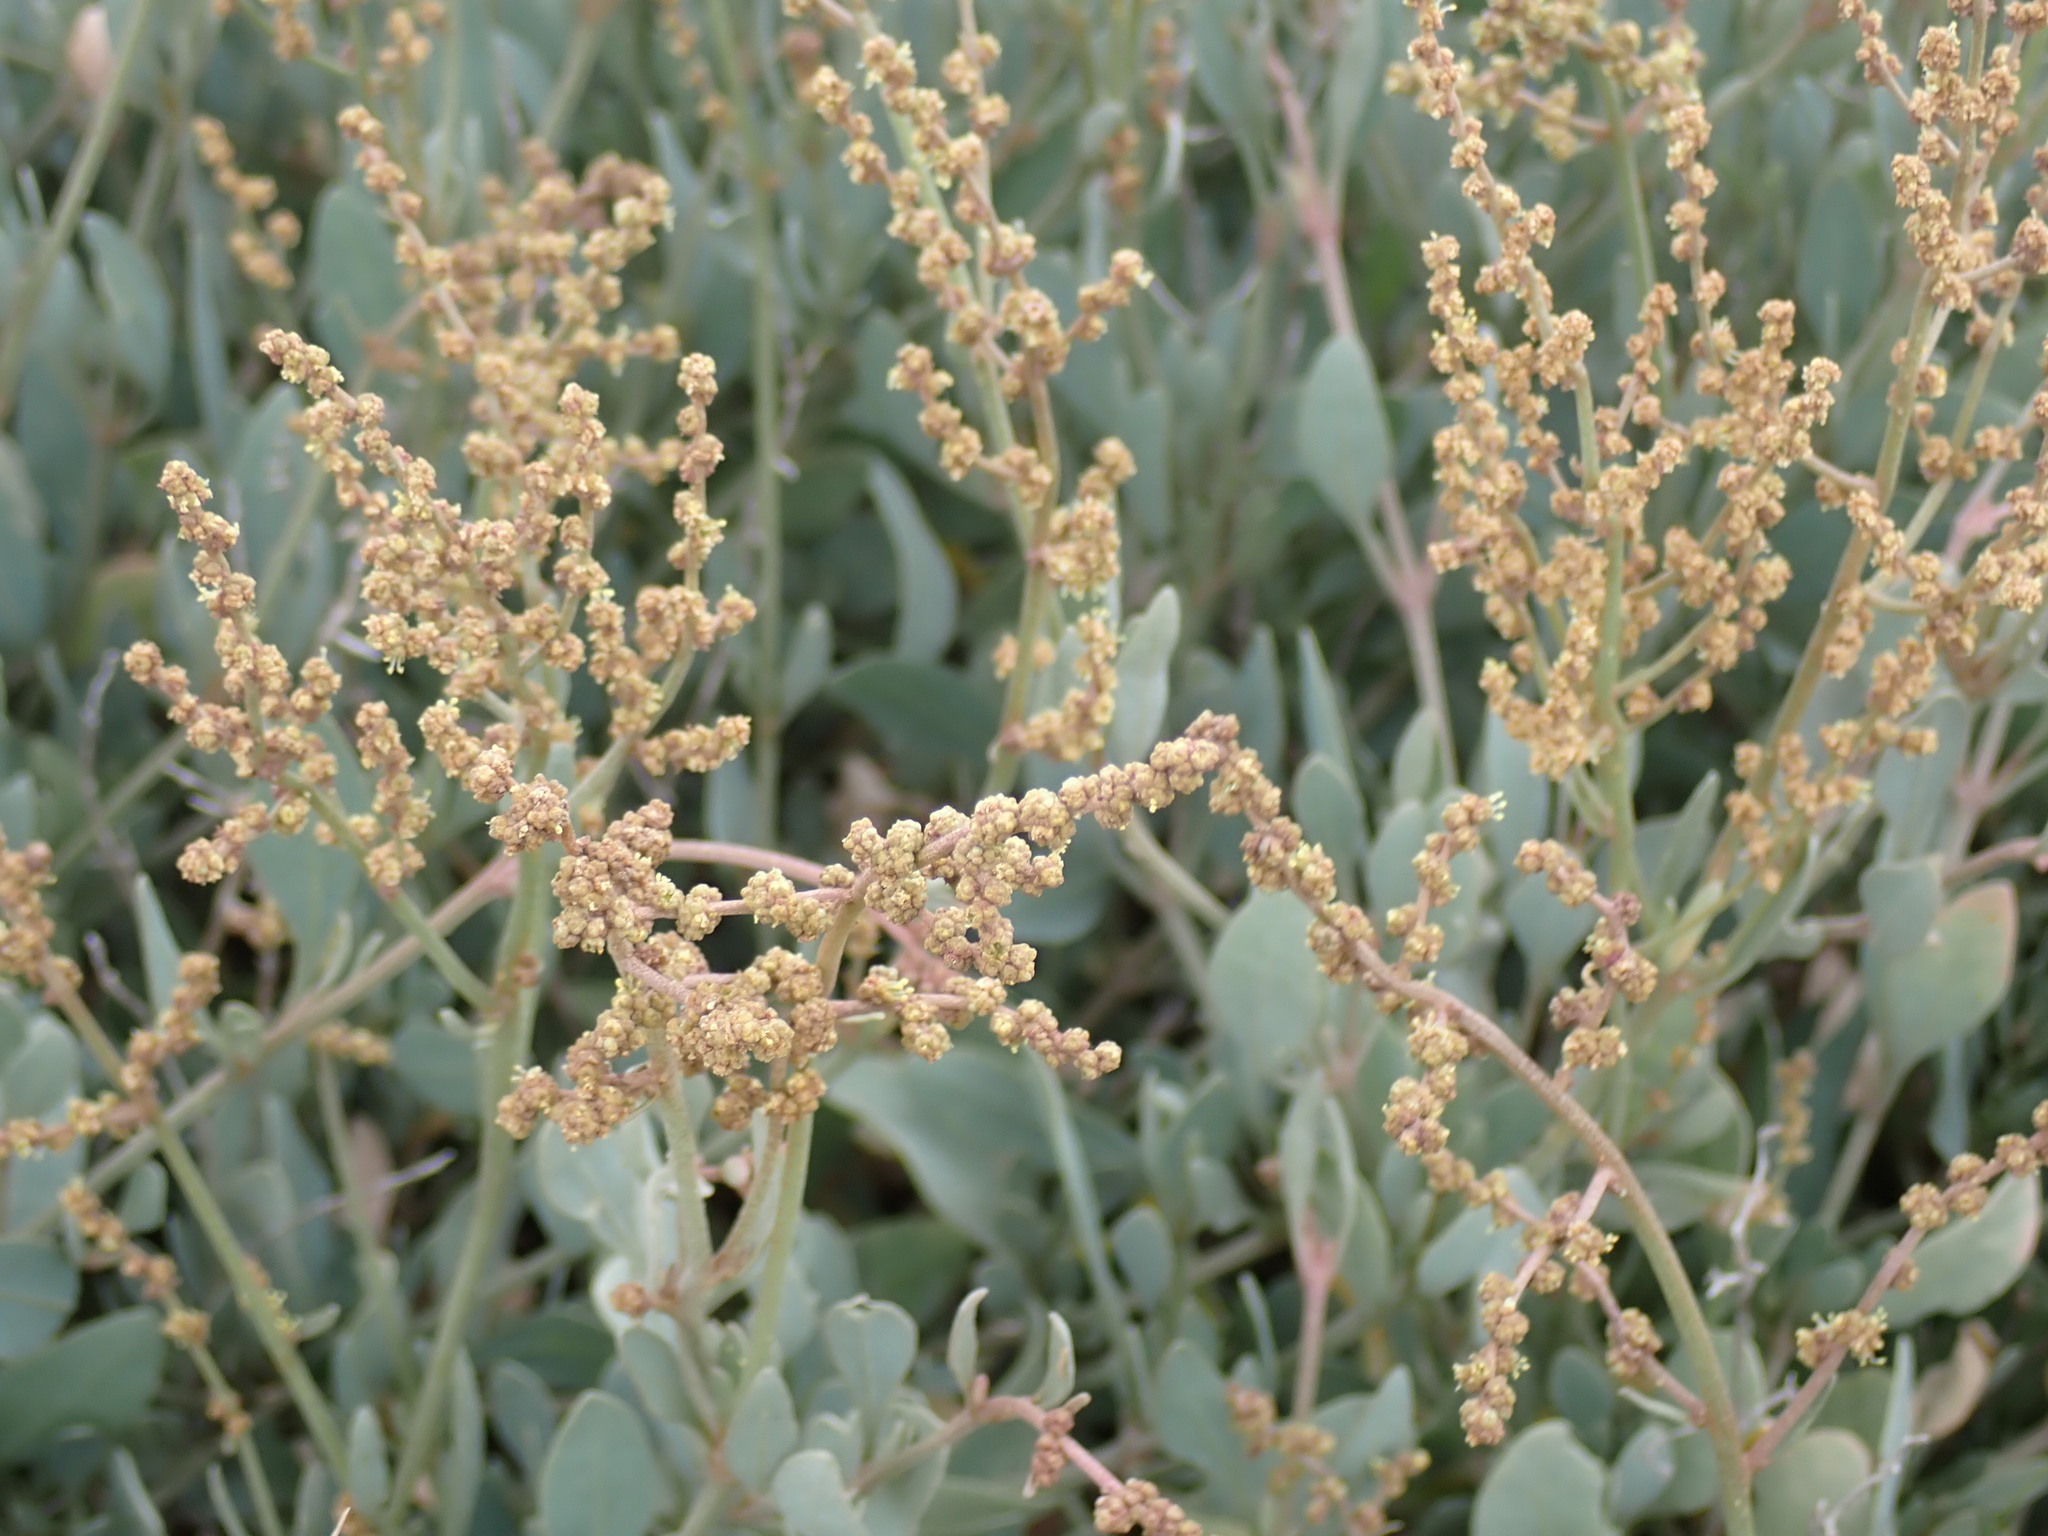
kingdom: Plantae
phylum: Tracheophyta
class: Magnoliopsida
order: Caryophyllales
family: Amaranthaceae
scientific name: Amaranthaceae
